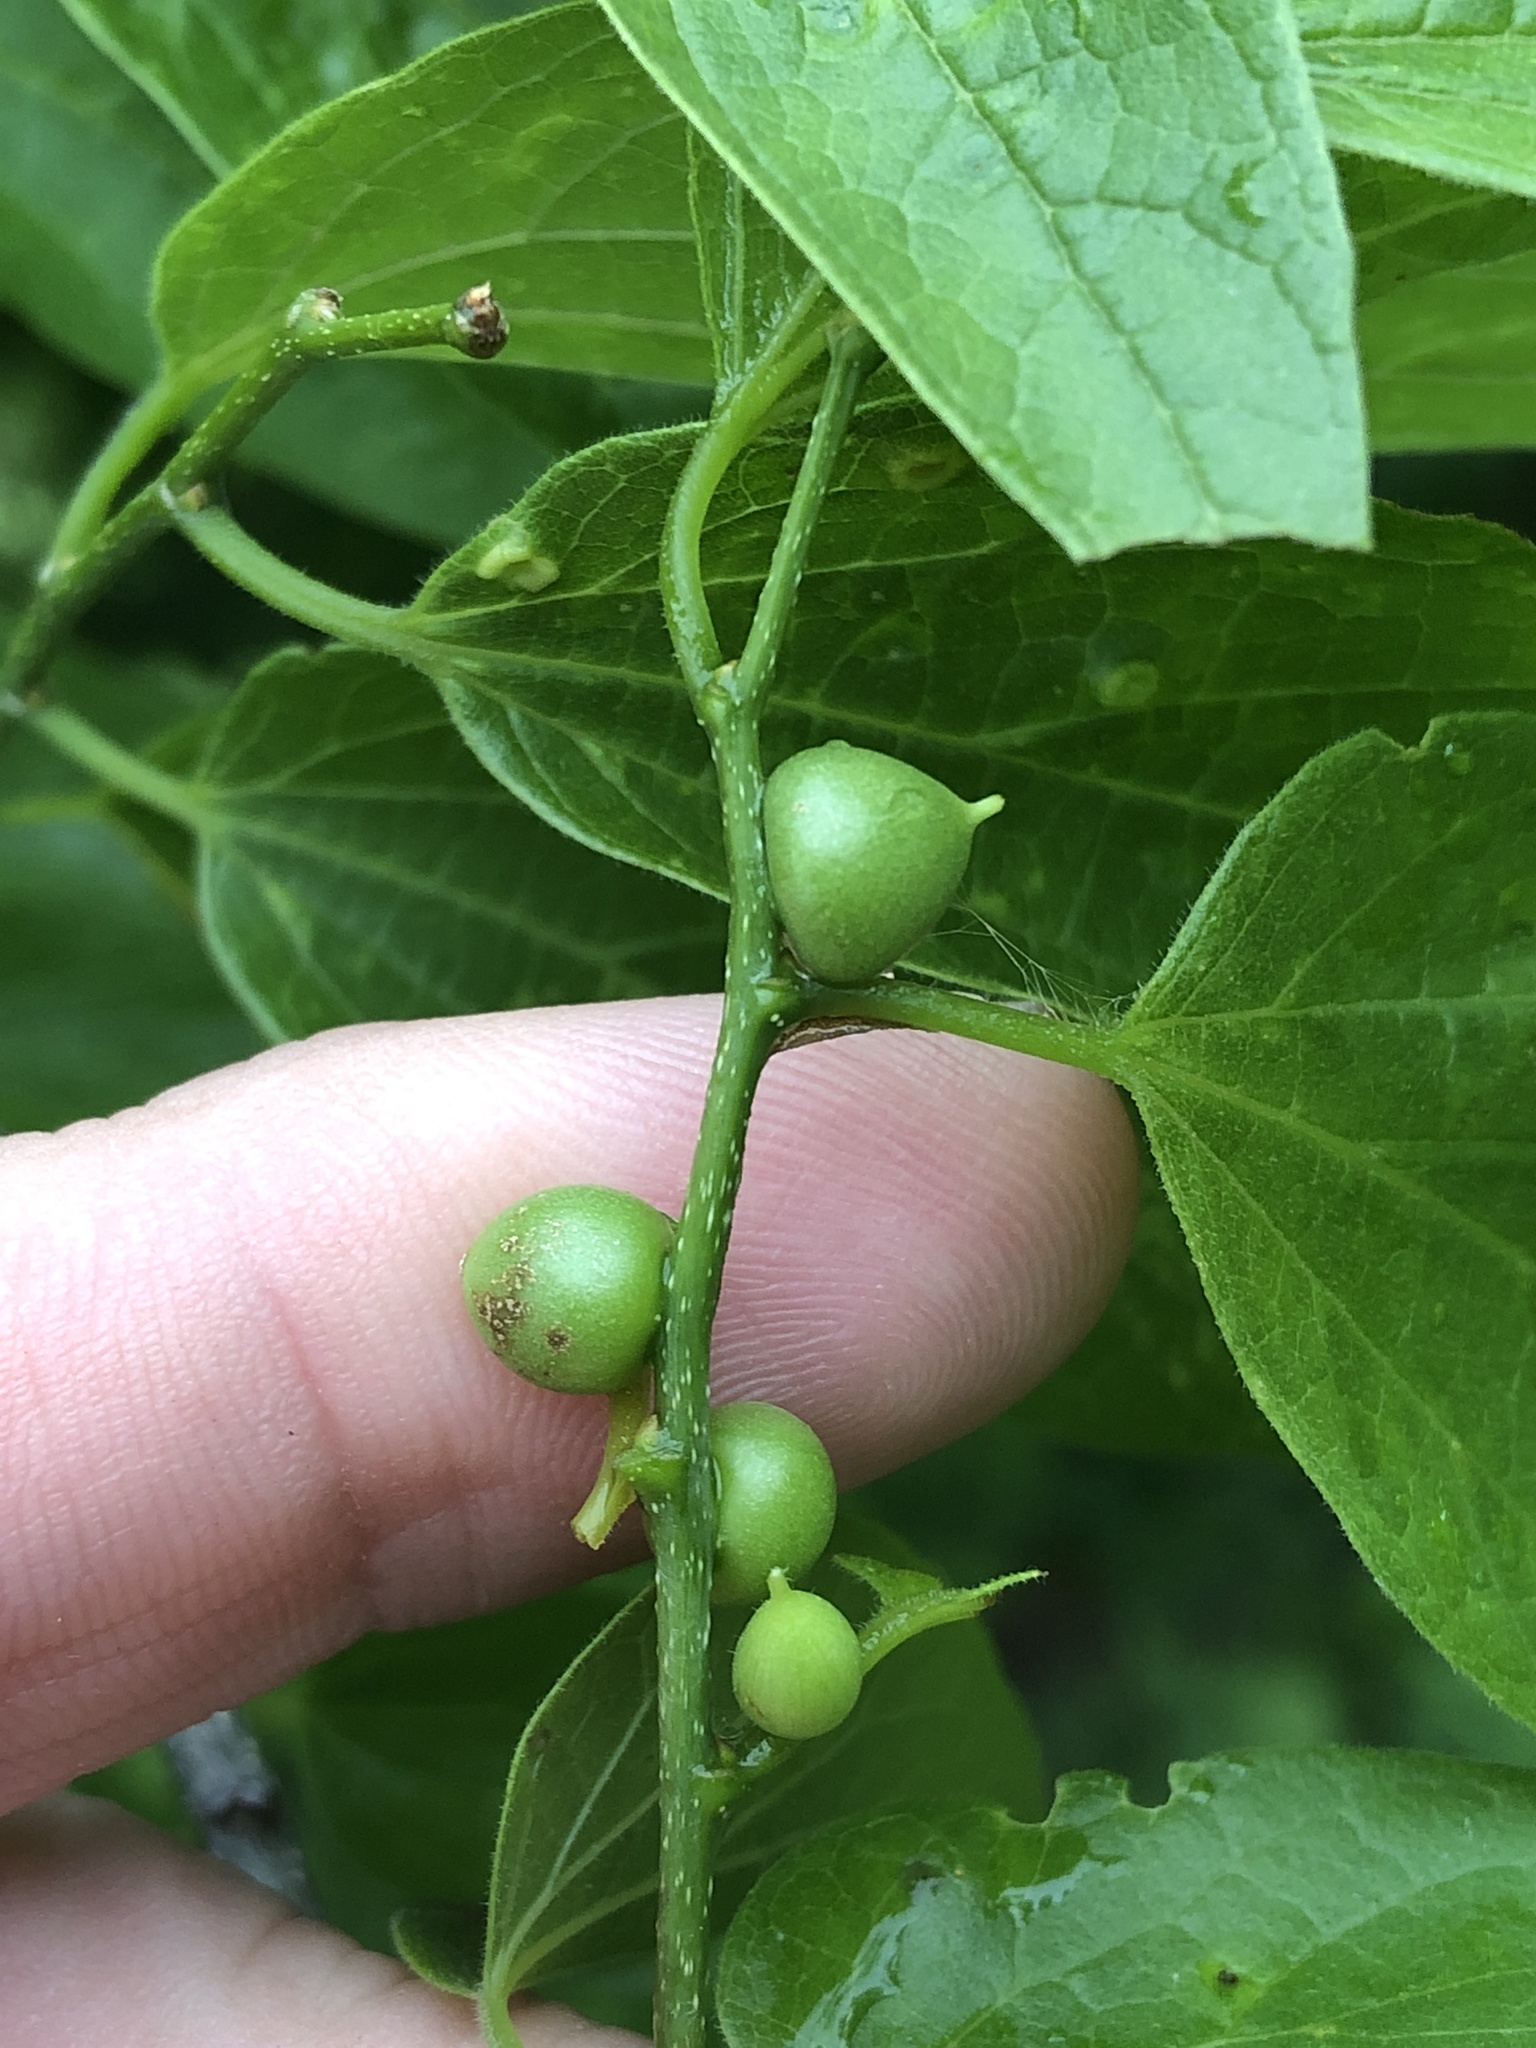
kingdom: Animalia
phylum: Arthropoda
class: Insecta
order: Diptera
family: Cecidomyiidae
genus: Celticecis
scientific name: Celticecis connata
